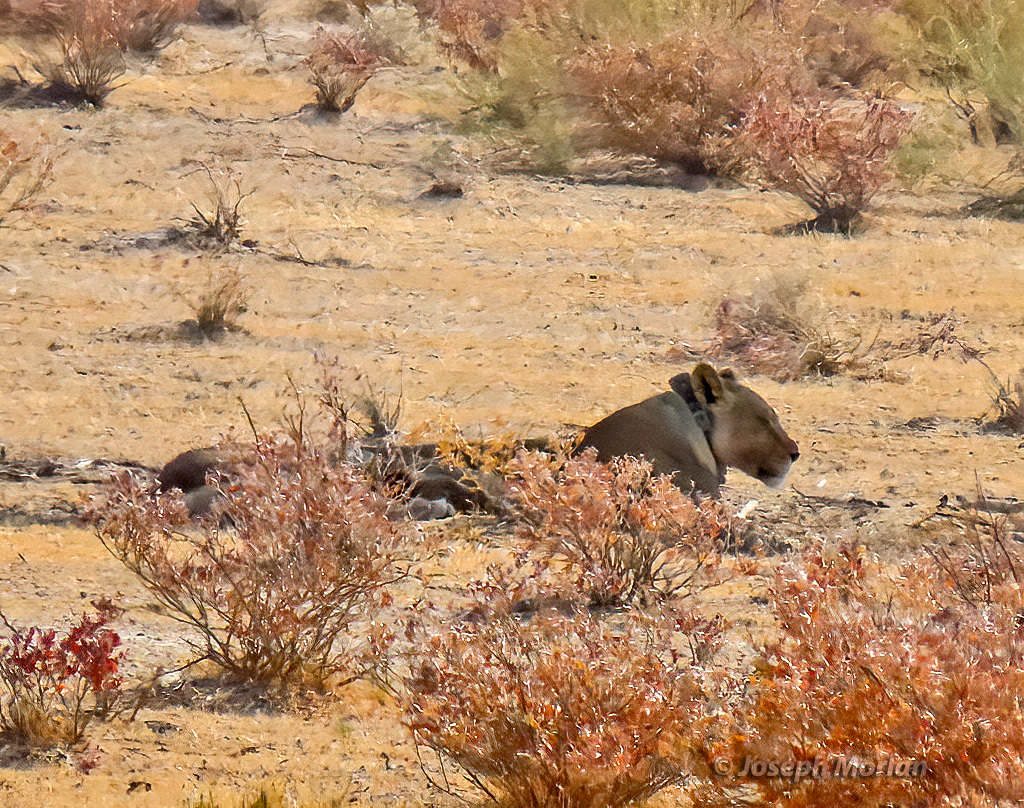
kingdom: Animalia
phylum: Chordata
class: Mammalia
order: Carnivora
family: Felidae
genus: Panthera
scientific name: Panthera leo
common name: Lion
